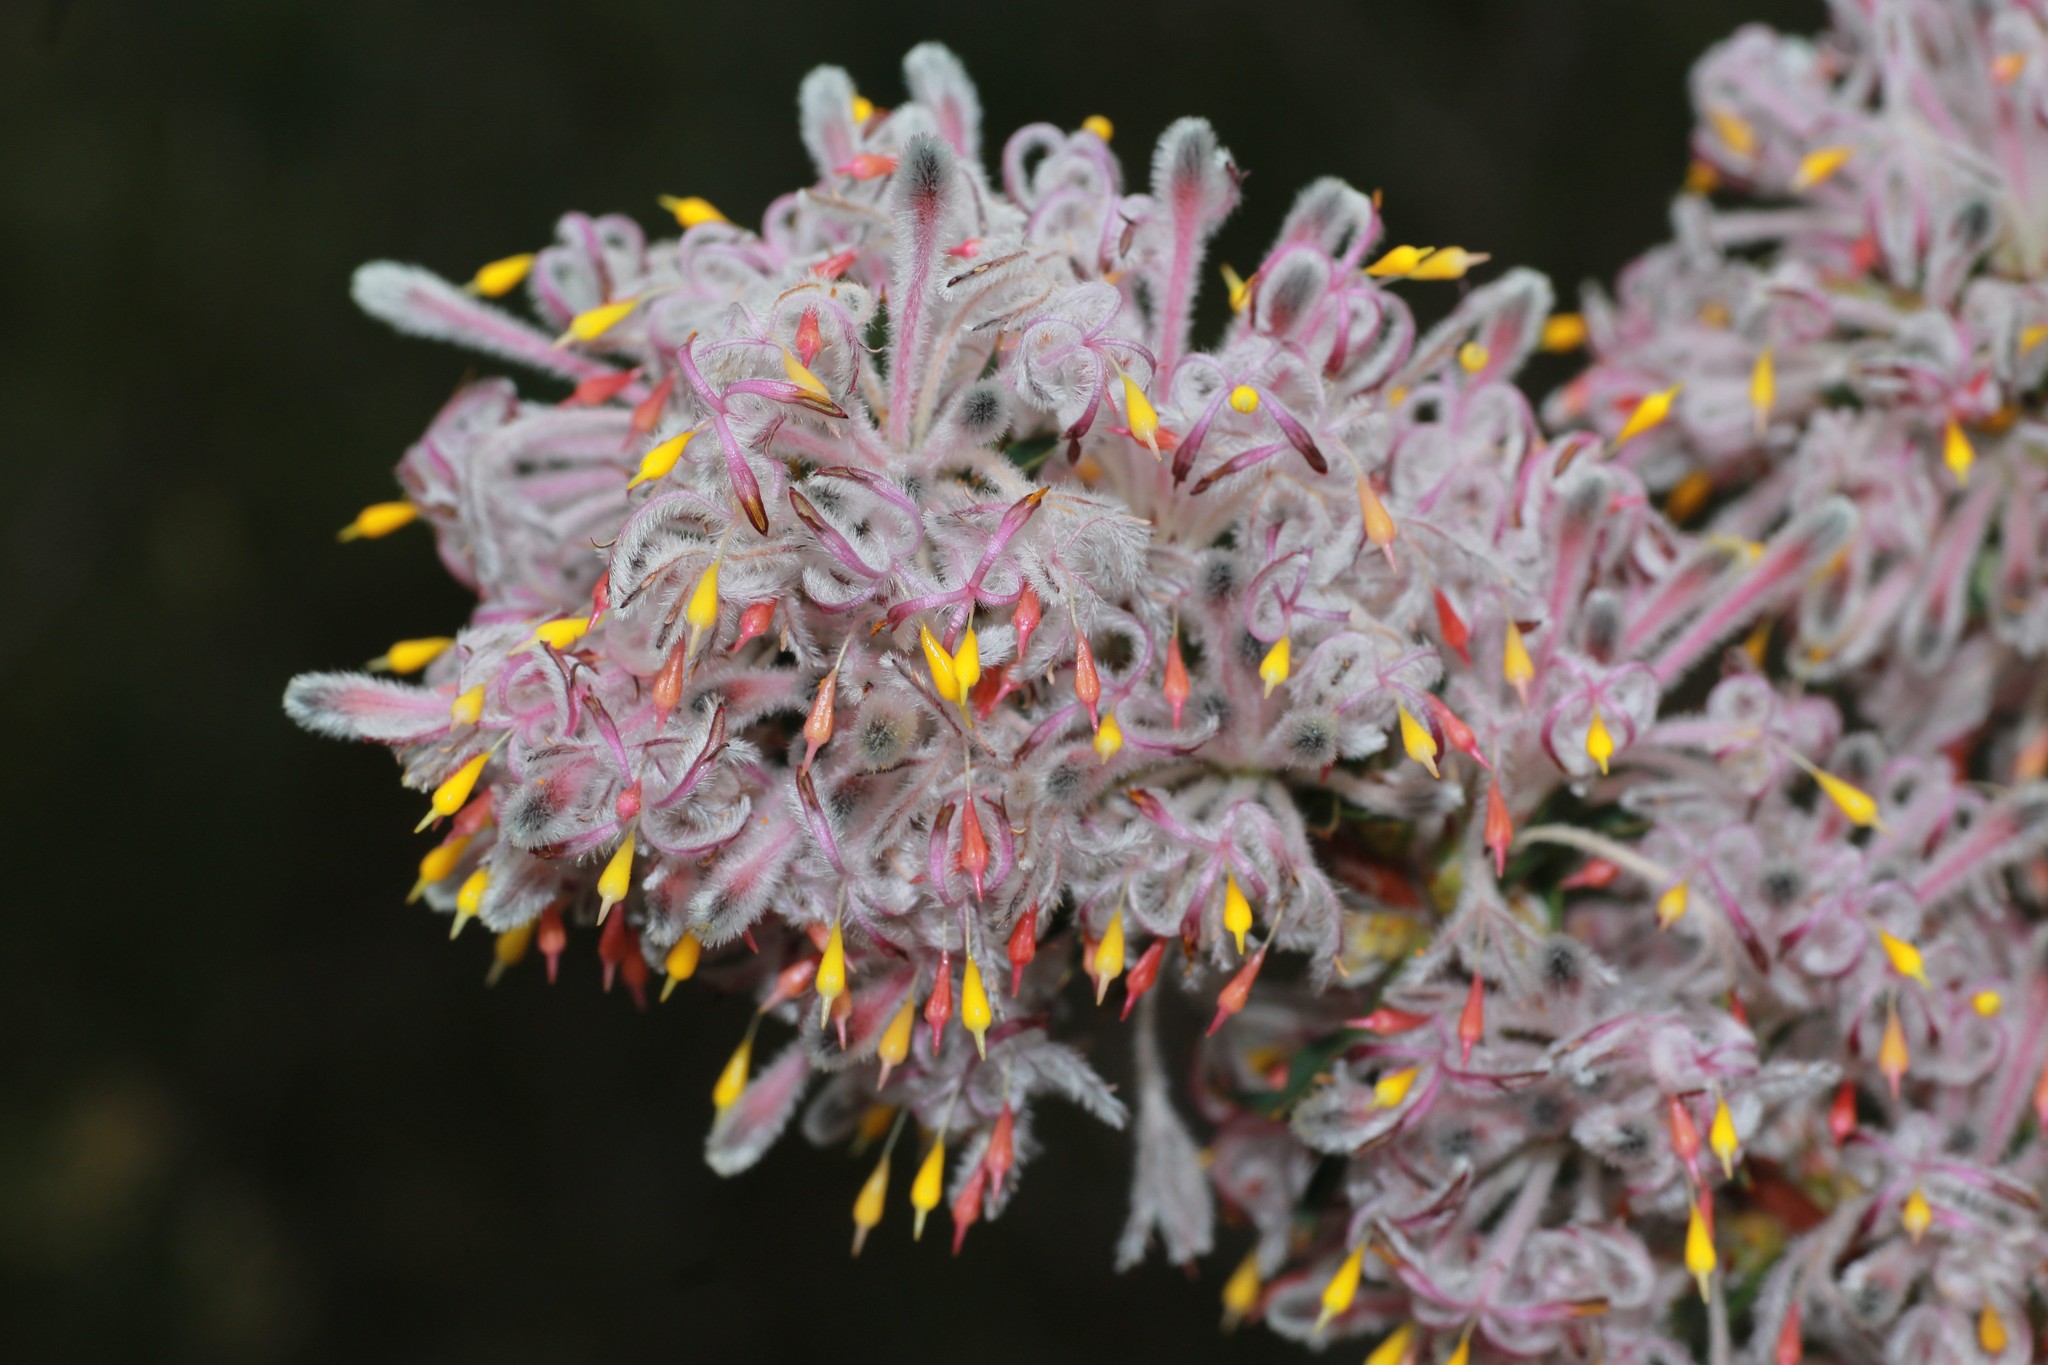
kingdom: Plantae
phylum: Tracheophyta
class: Magnoliopsida
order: Proteales
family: Proteaceae
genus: Petrophile
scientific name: Petrophile biloba
